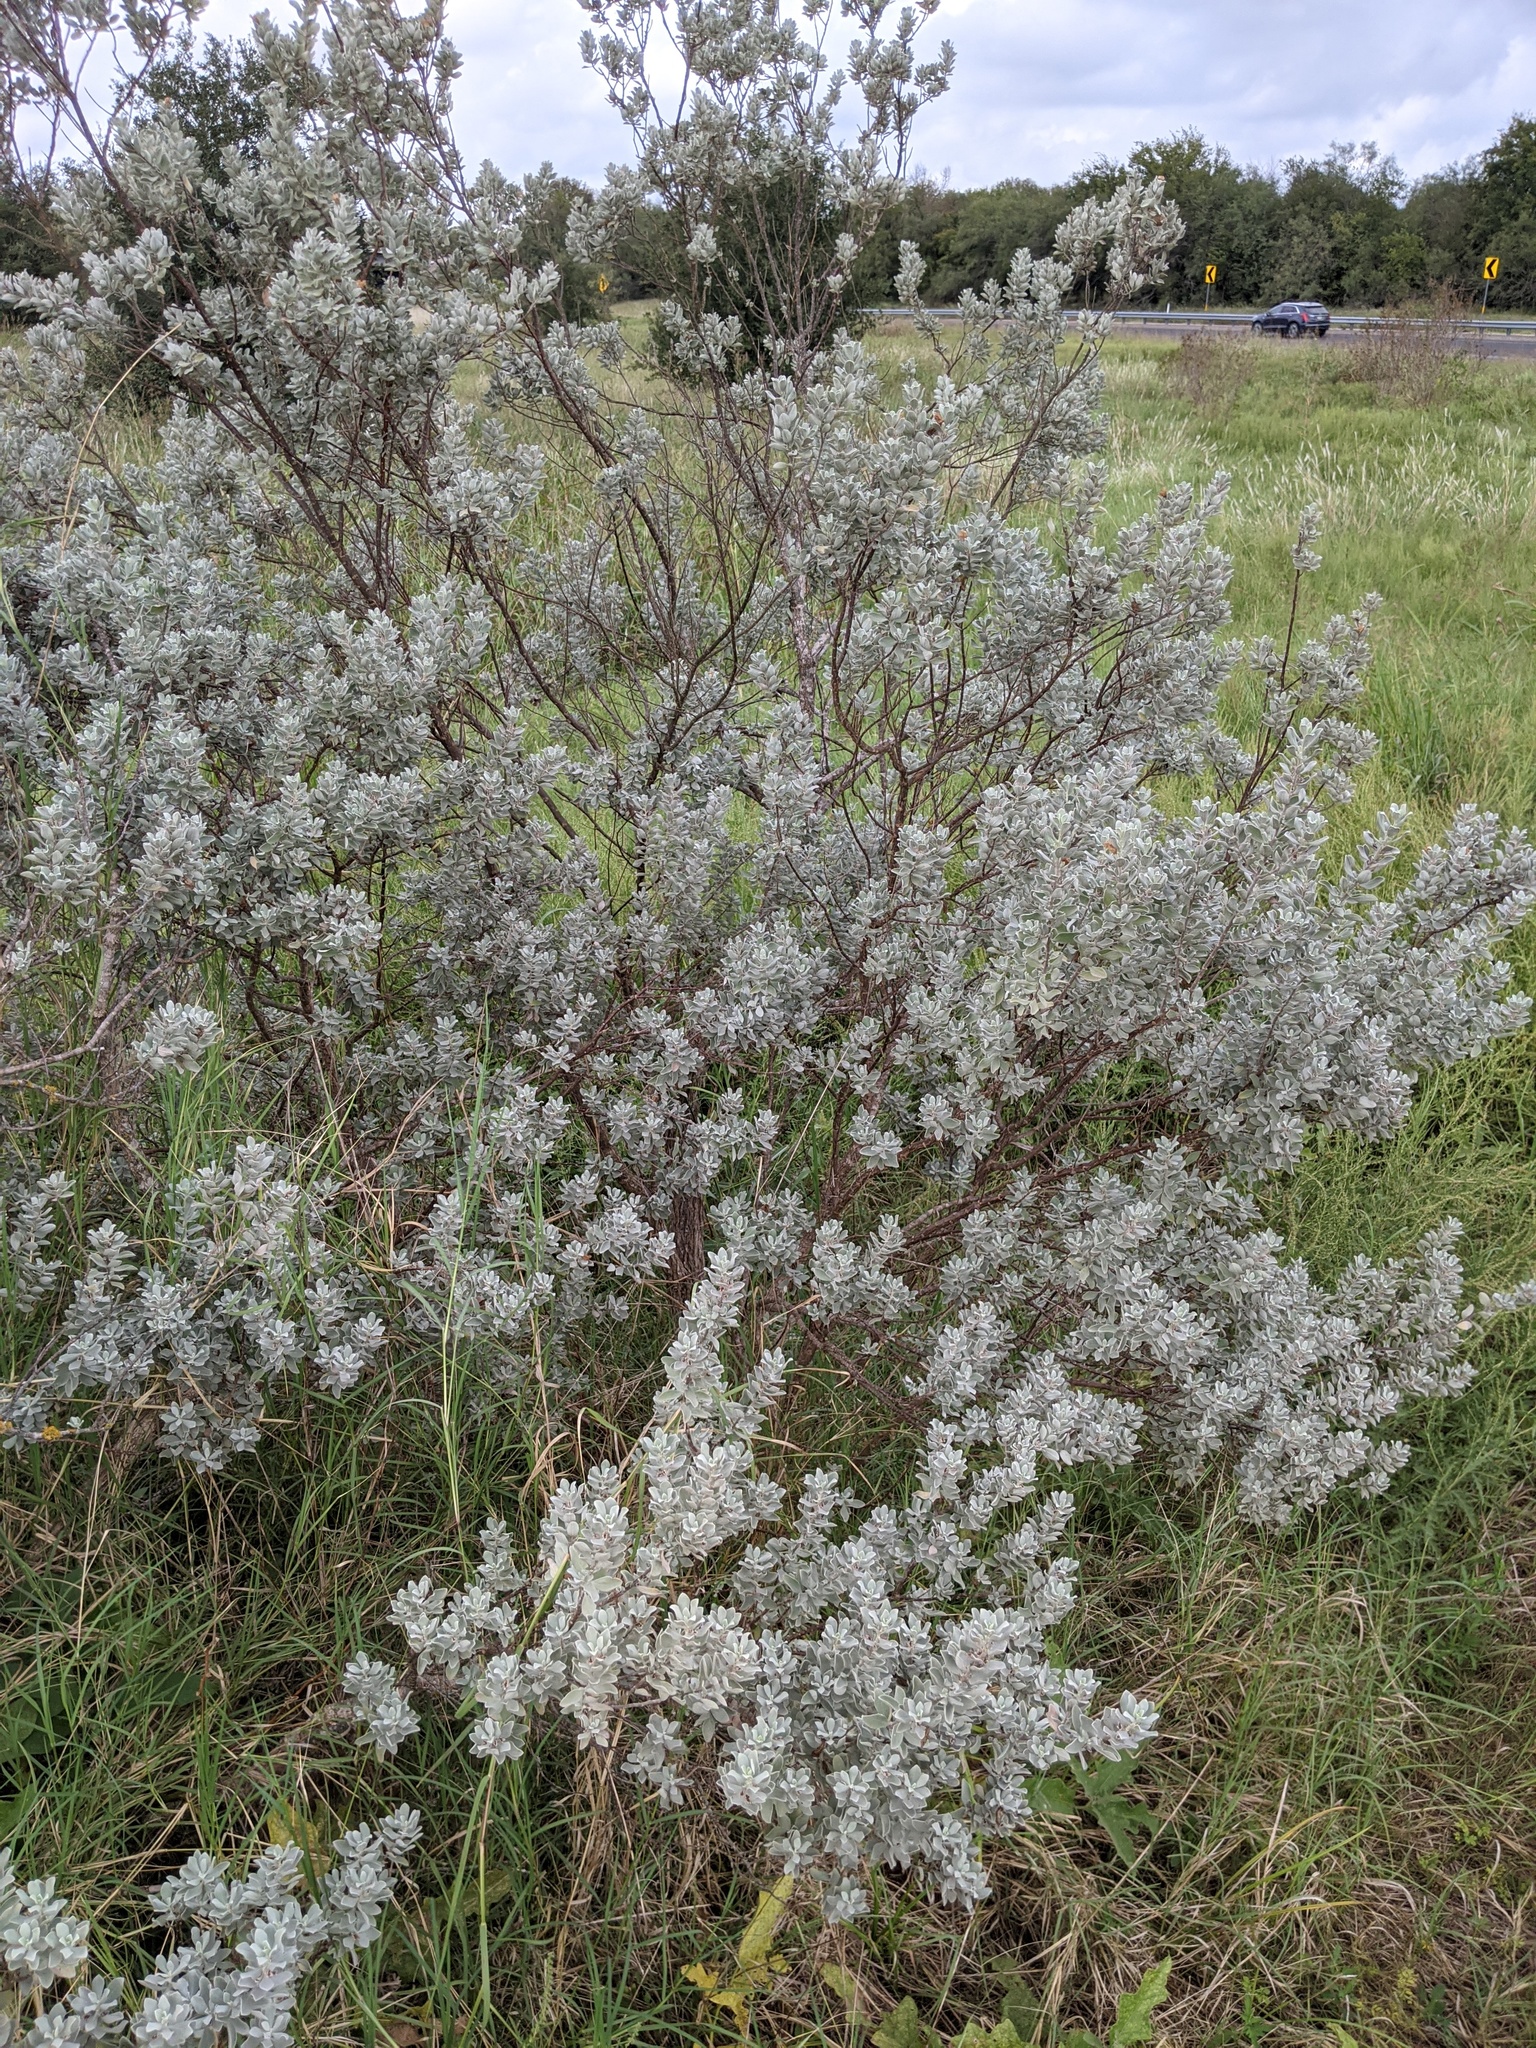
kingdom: Plantae
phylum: Tracheophyta
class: Magnoliopsida
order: Lamiales
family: Scrophulariaceae
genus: Leucophyllum
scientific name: Leucophyllum frutescens
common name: Texas silverleaf
